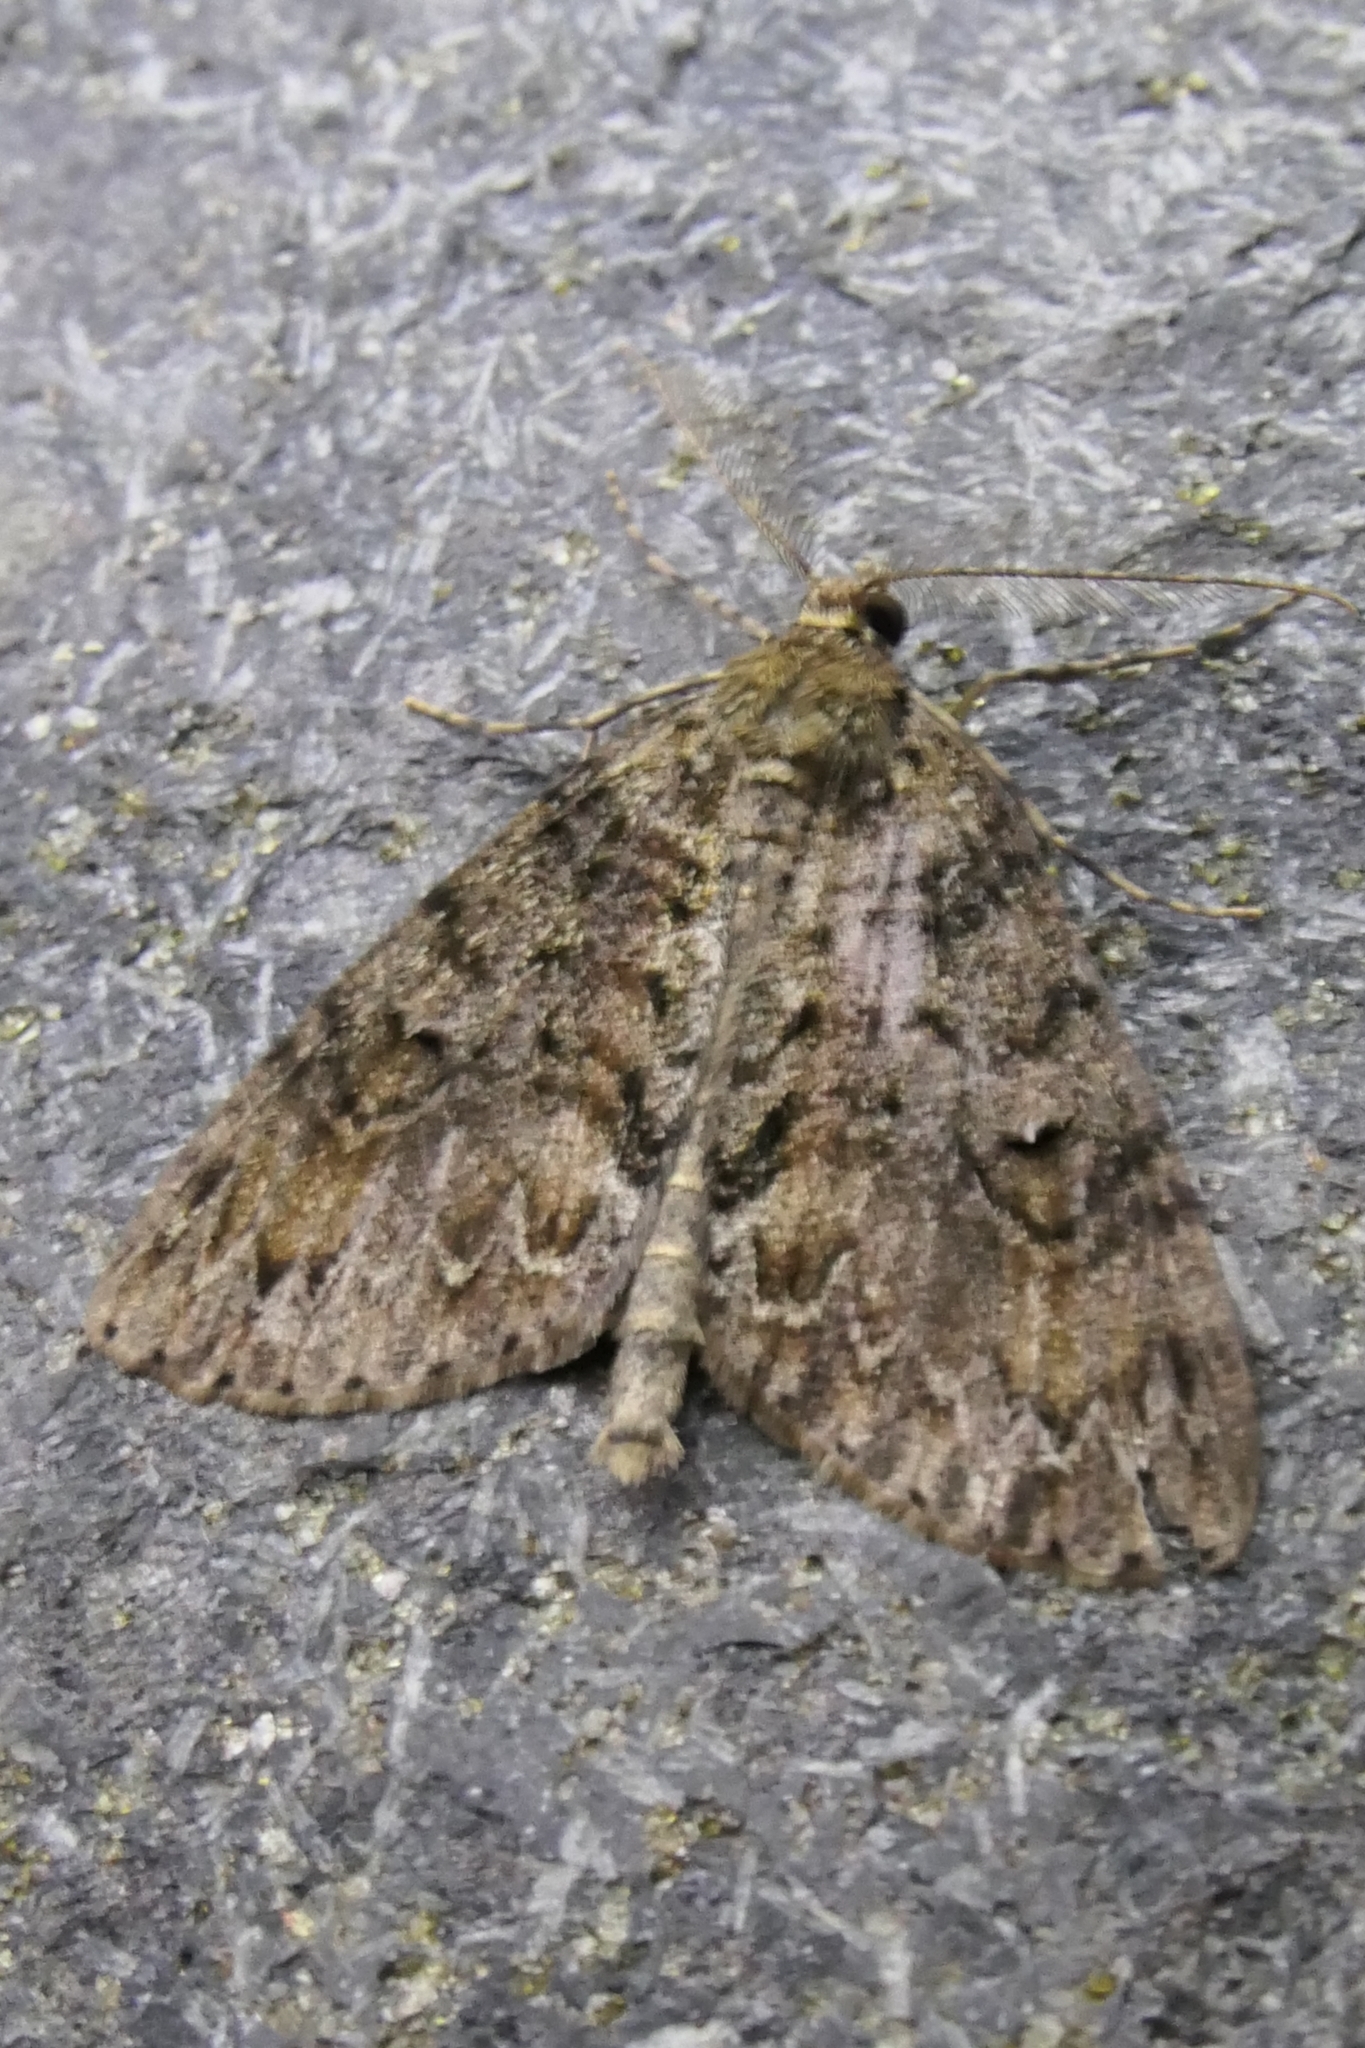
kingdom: Animalia
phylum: Arthropoda
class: Insecta
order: Lepidoptera
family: Geometridae
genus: Pseudocoremia
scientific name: Pseudocoremia suavis
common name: Common forest looper
